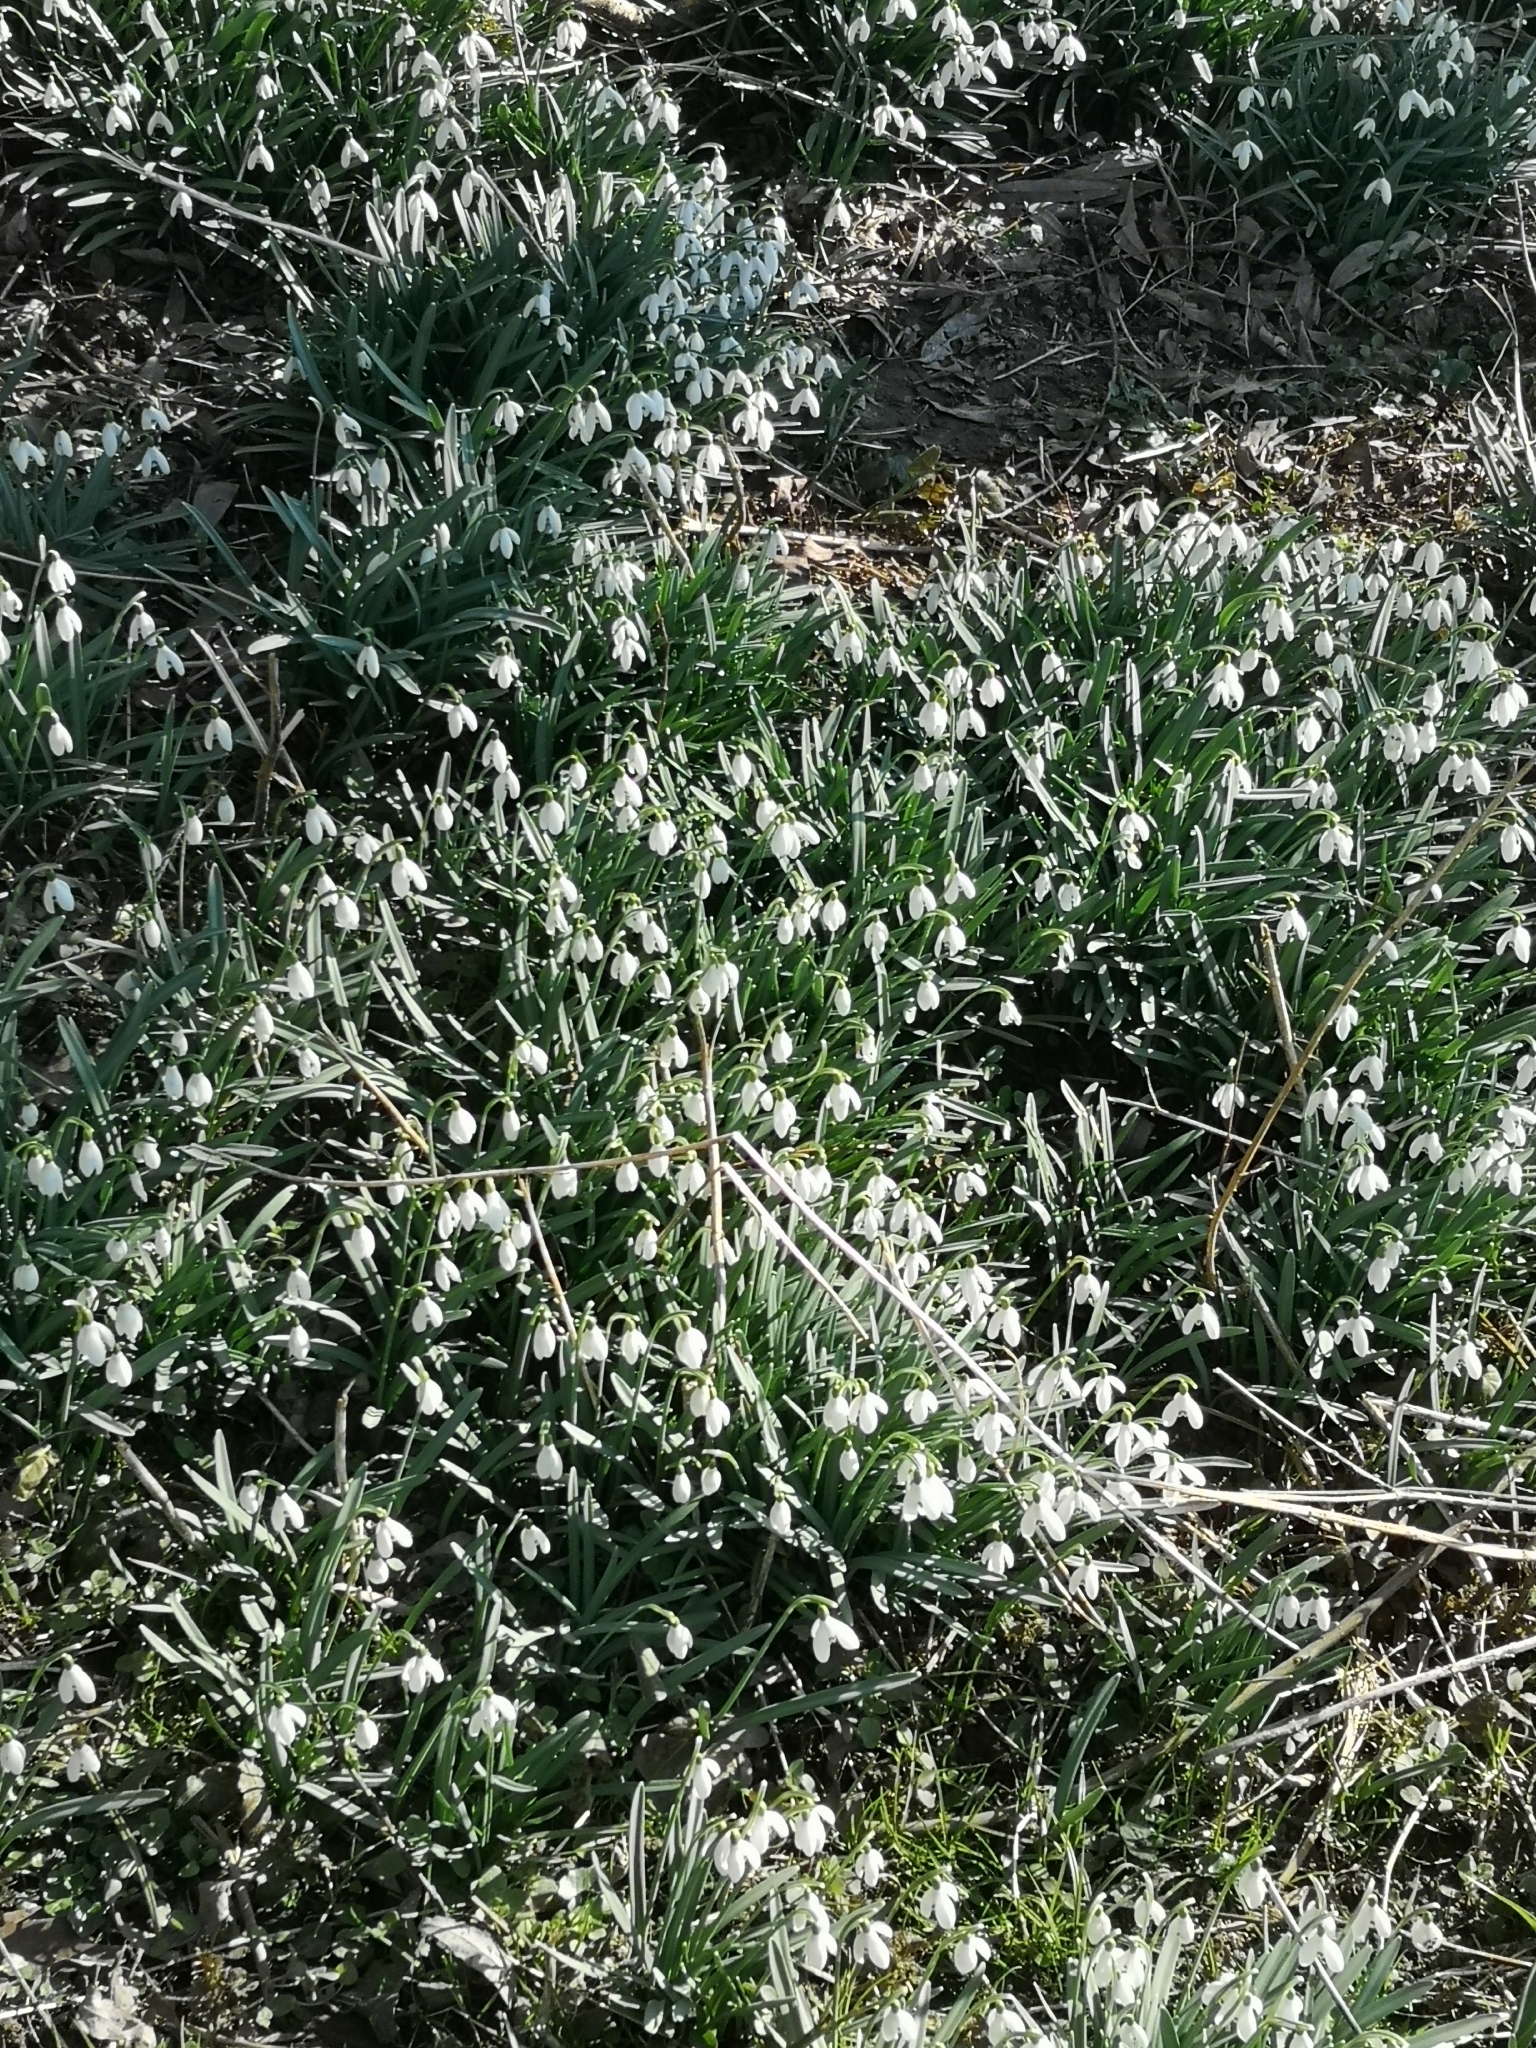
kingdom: Plantae
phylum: Tracheophyta
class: Liliopsida
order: Asparagales
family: Amaryllidaceae
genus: Galanthus
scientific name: Galanthus nivalis
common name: Snowdrop
